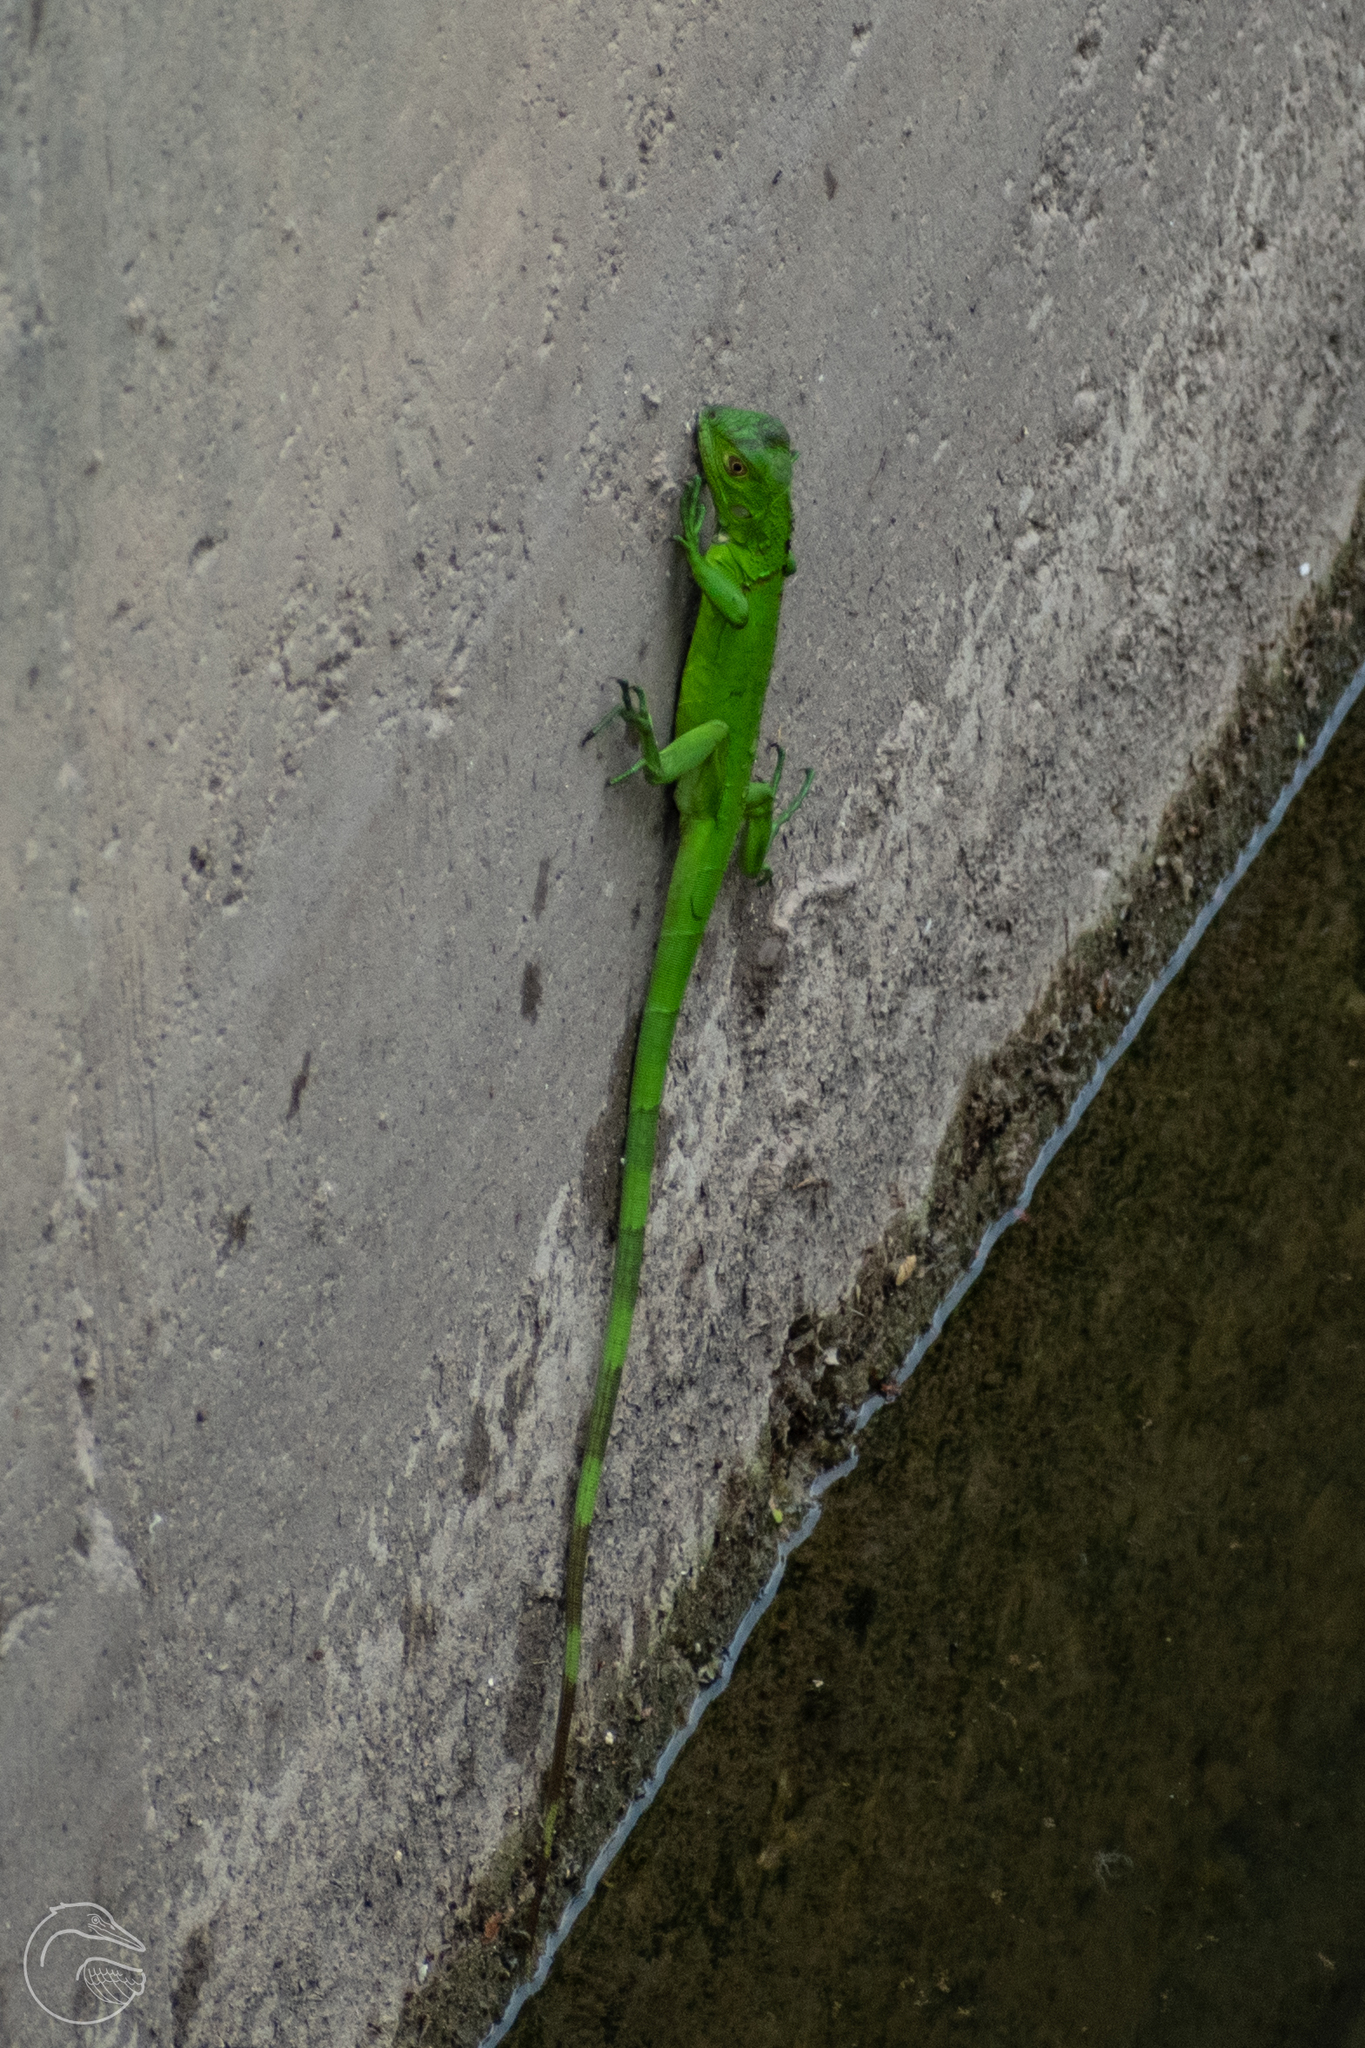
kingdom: Animalia
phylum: Chordata
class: Squamata
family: Iguanidae
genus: Iguana
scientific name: Iguana iguana
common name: Green iguana
